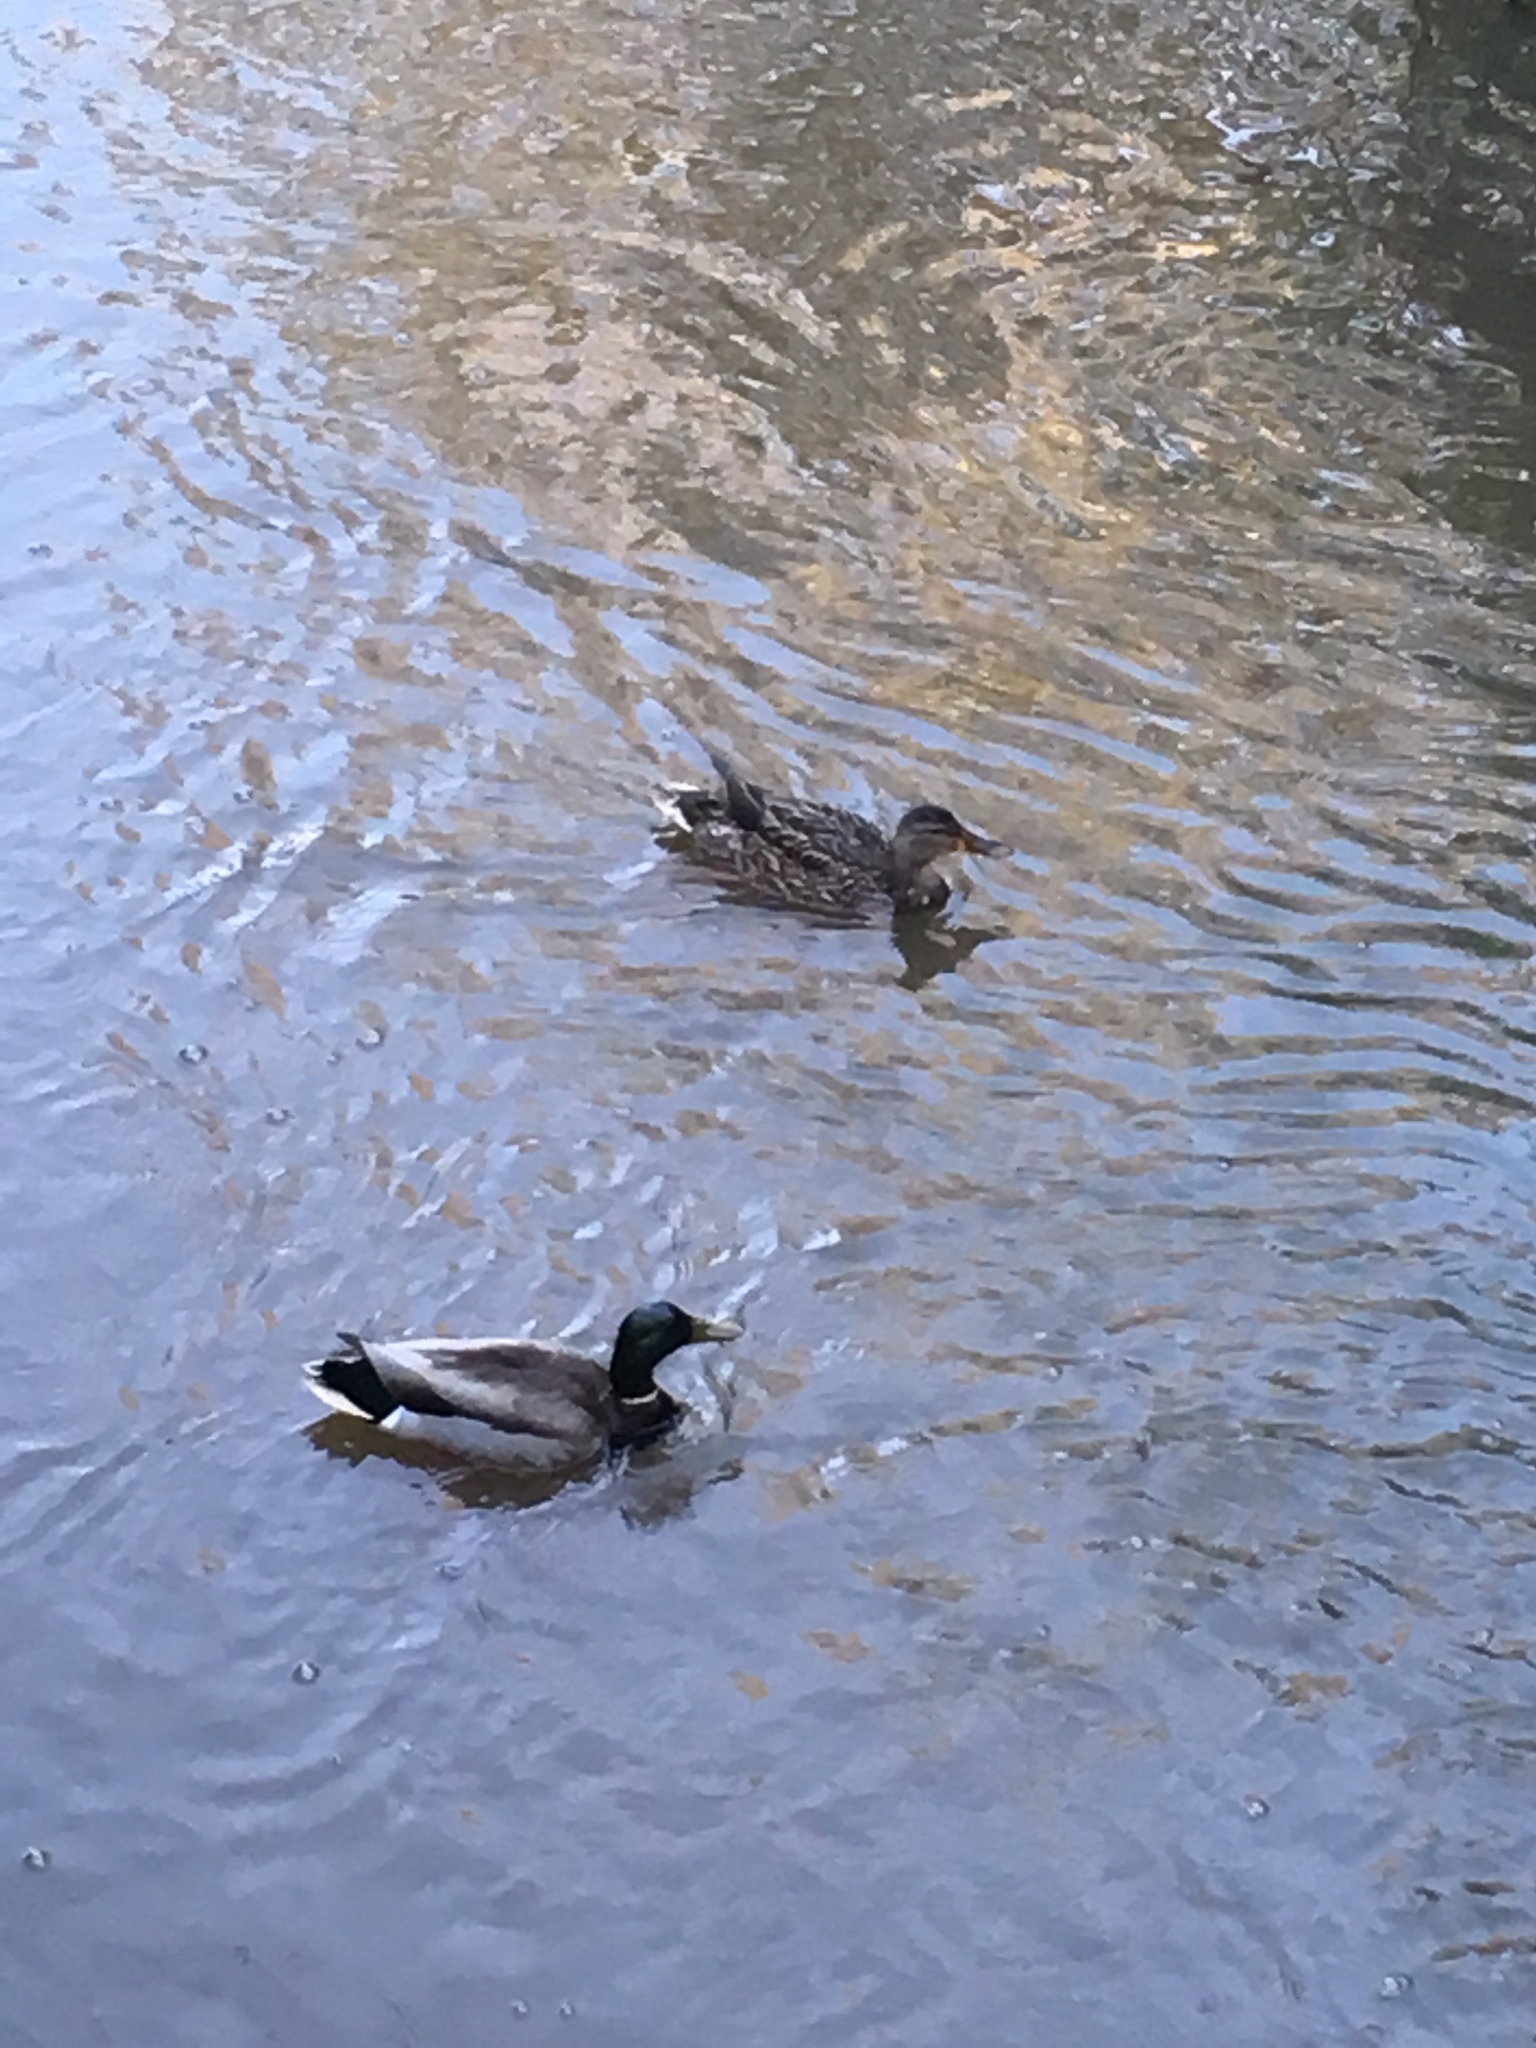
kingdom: Animalia
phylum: Chordata
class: Aves
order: Anseriformes
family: Anatidae
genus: Anas
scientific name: Anas platyrhynchos
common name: Mallard
